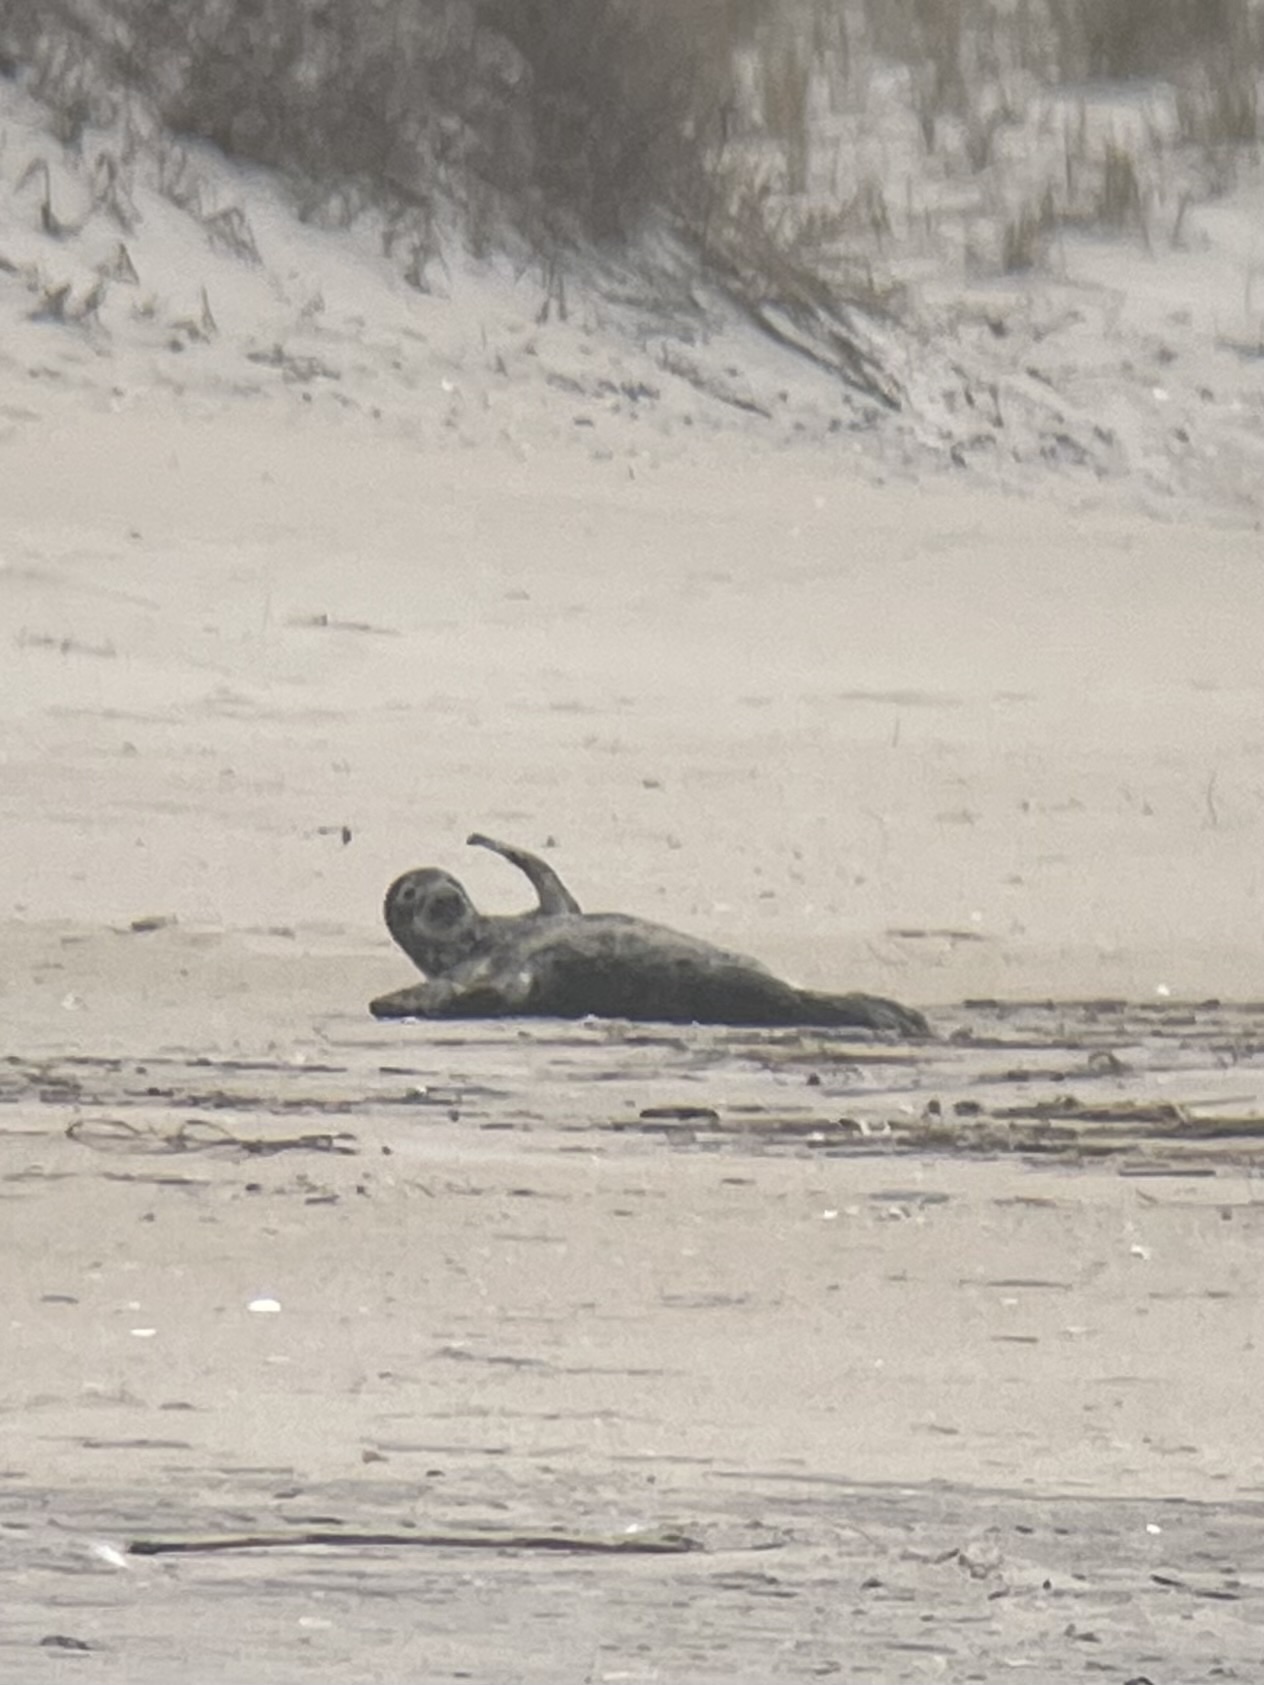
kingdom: Animalia
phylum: Chordata
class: Mammalia
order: Carnivora
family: Phocidae
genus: Halichoerus
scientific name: Halichoerus grypus
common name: Grey seal
